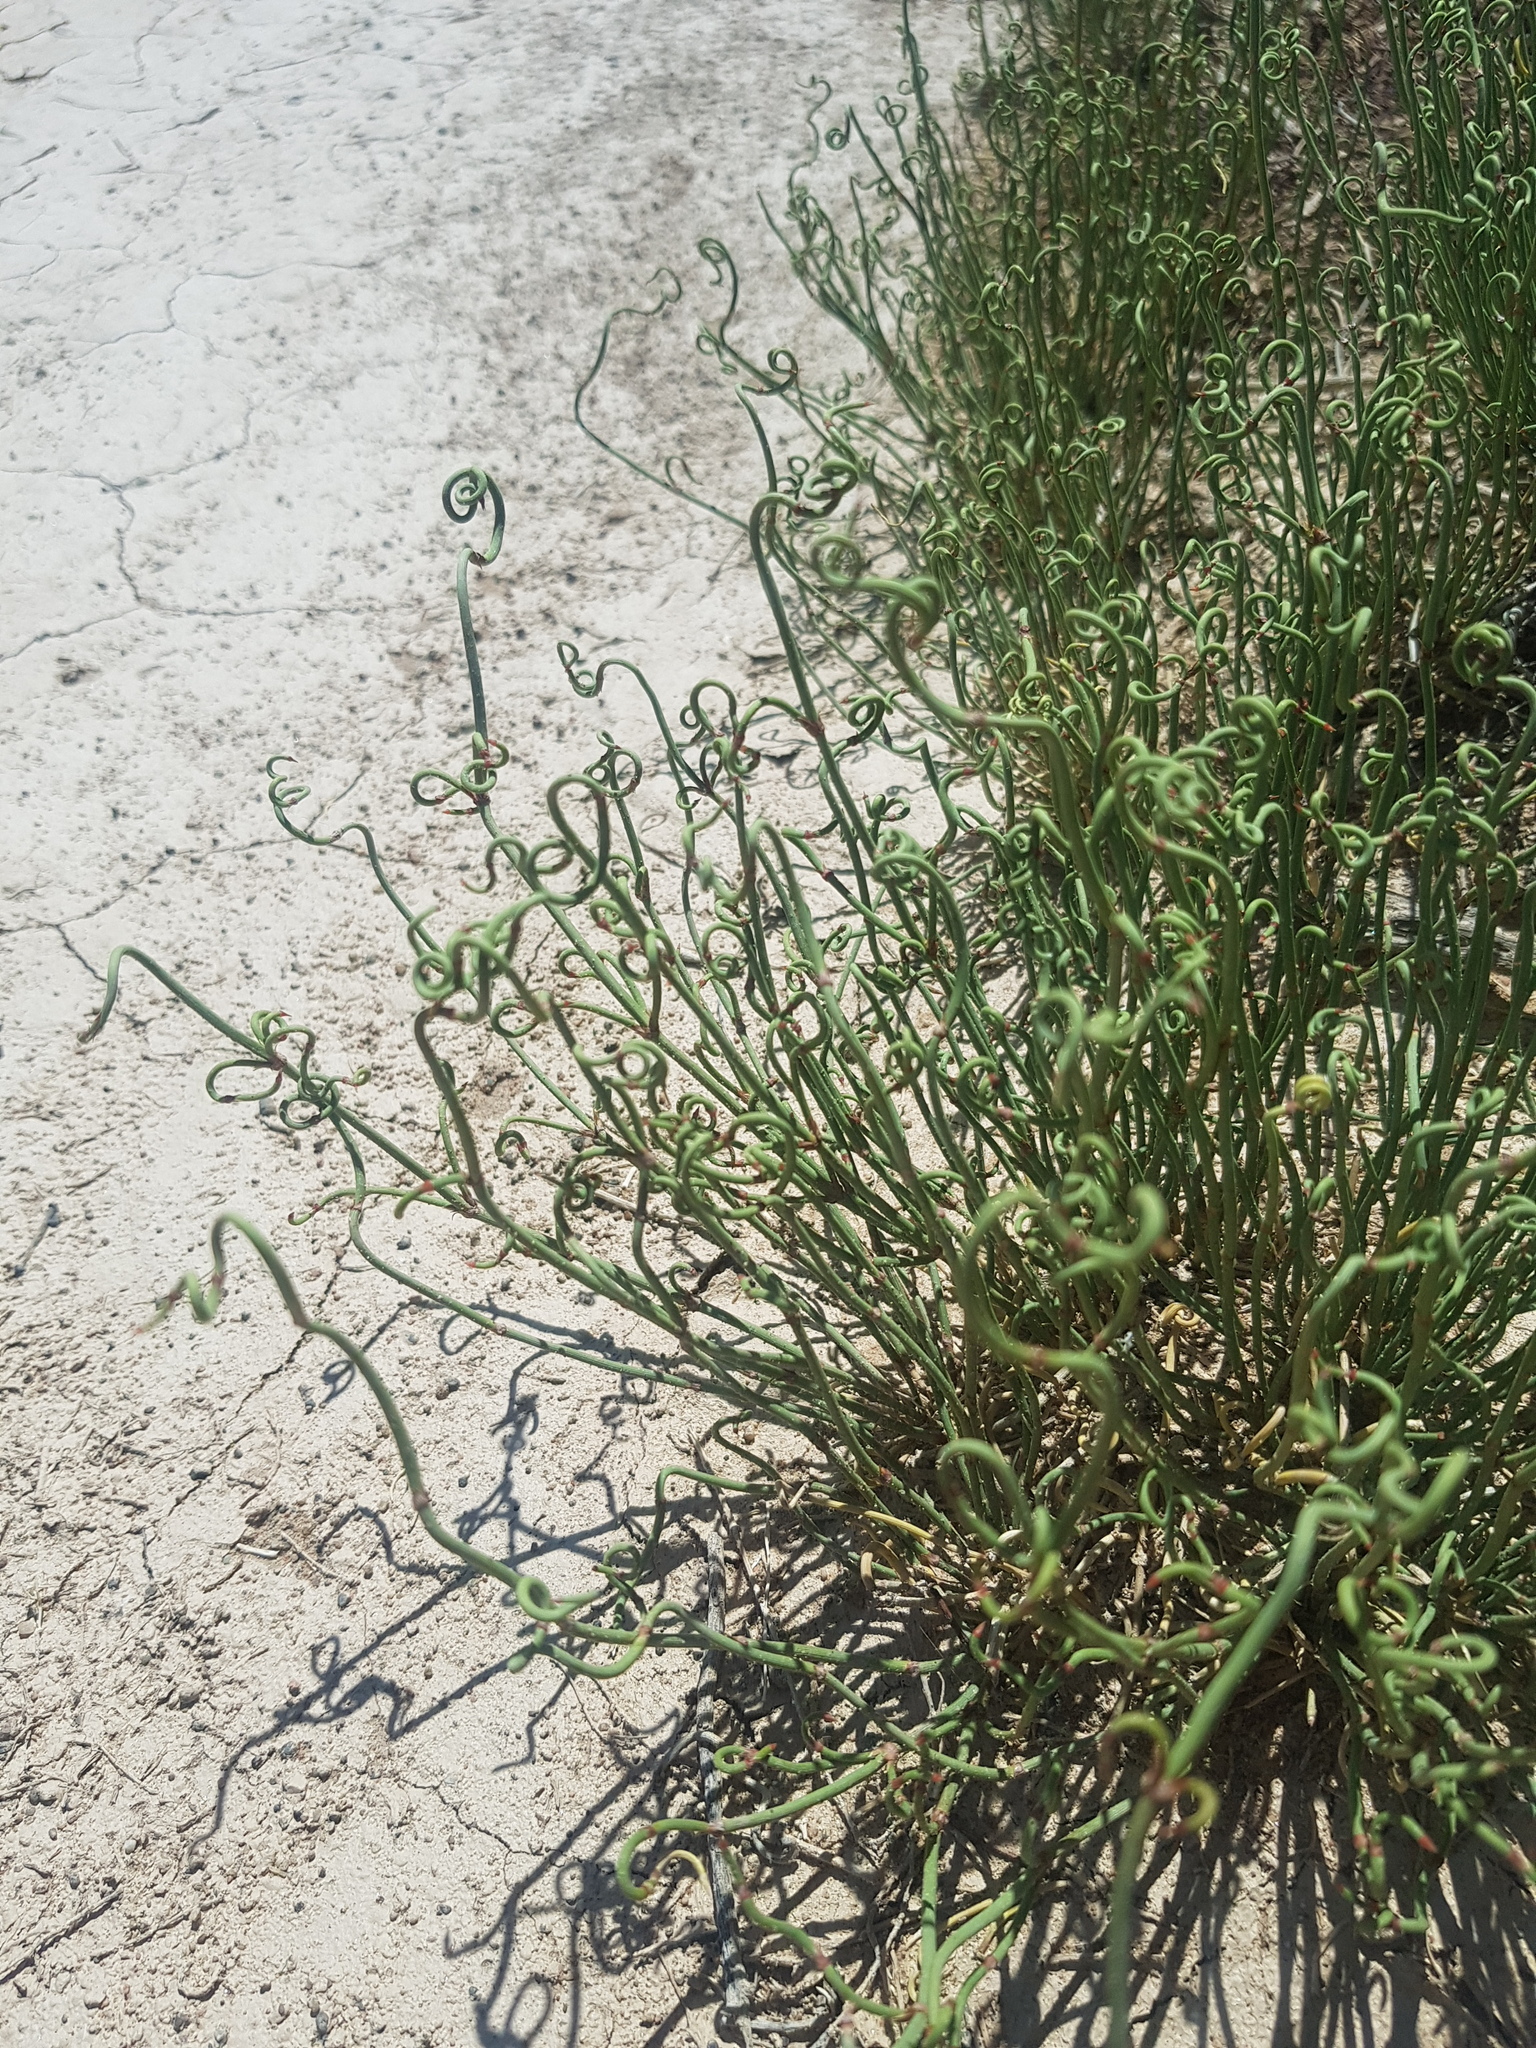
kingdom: Plantae
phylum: Tracheophyta
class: Gnetopsida
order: Ephedrales
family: Ephedraceae
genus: Ephedra
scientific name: Ephedra przewalskii
